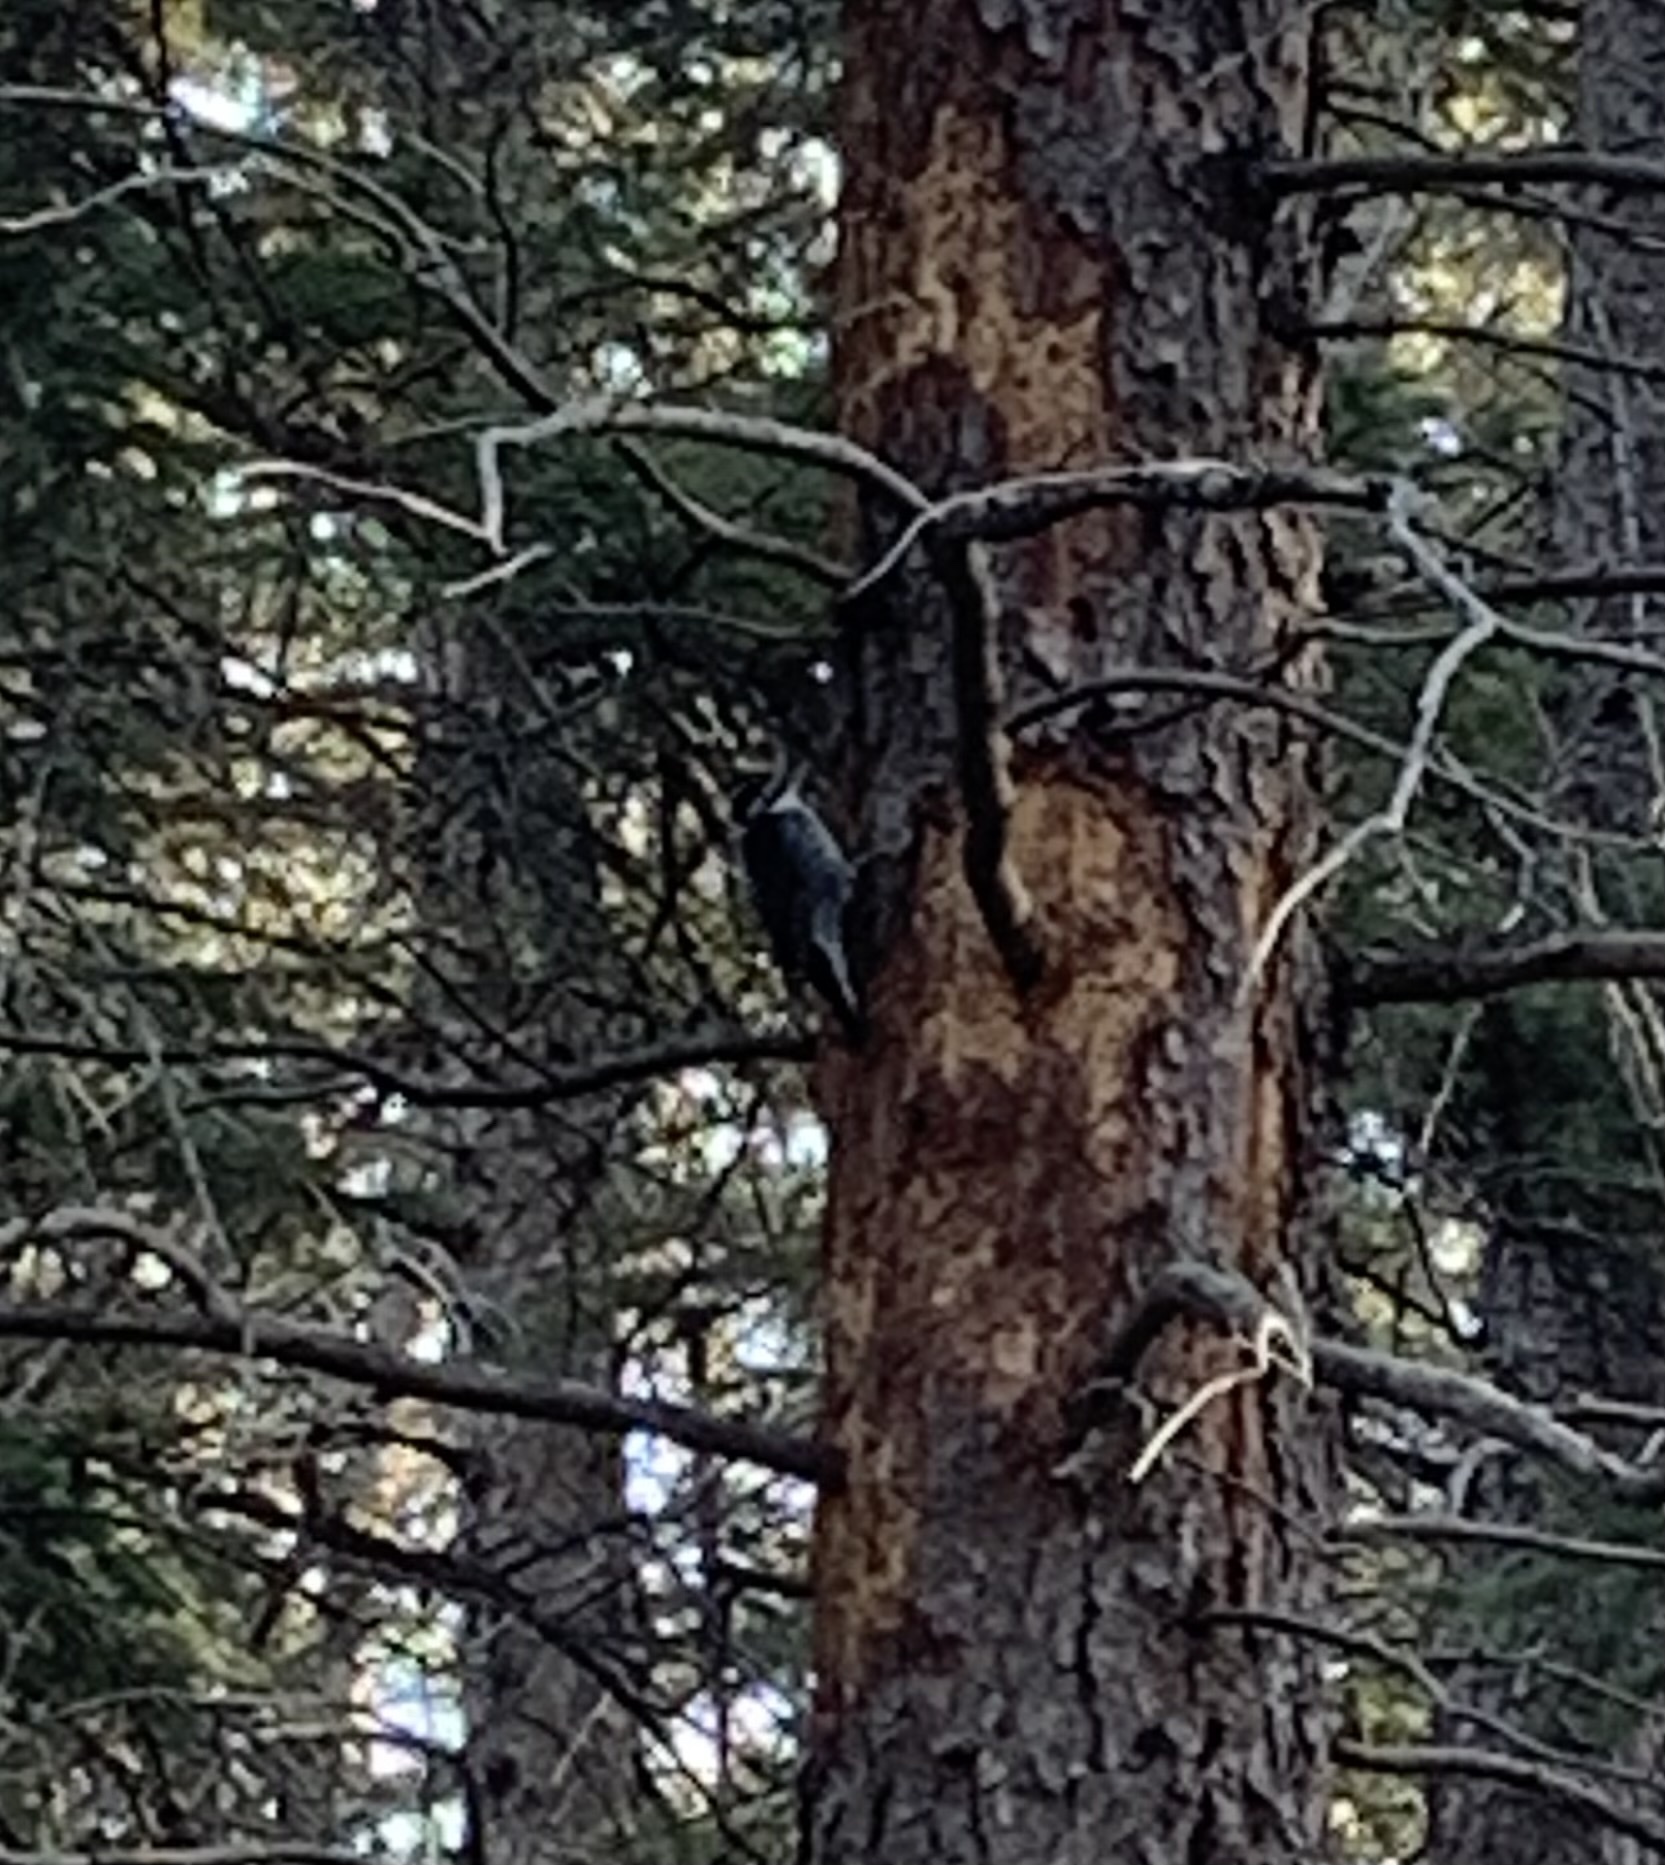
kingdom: Animalia
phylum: Chordata
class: Aves
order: Piciformes
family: Picidae
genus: Picoides
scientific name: Picoides dorsalis
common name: American three-toed woodpecker
